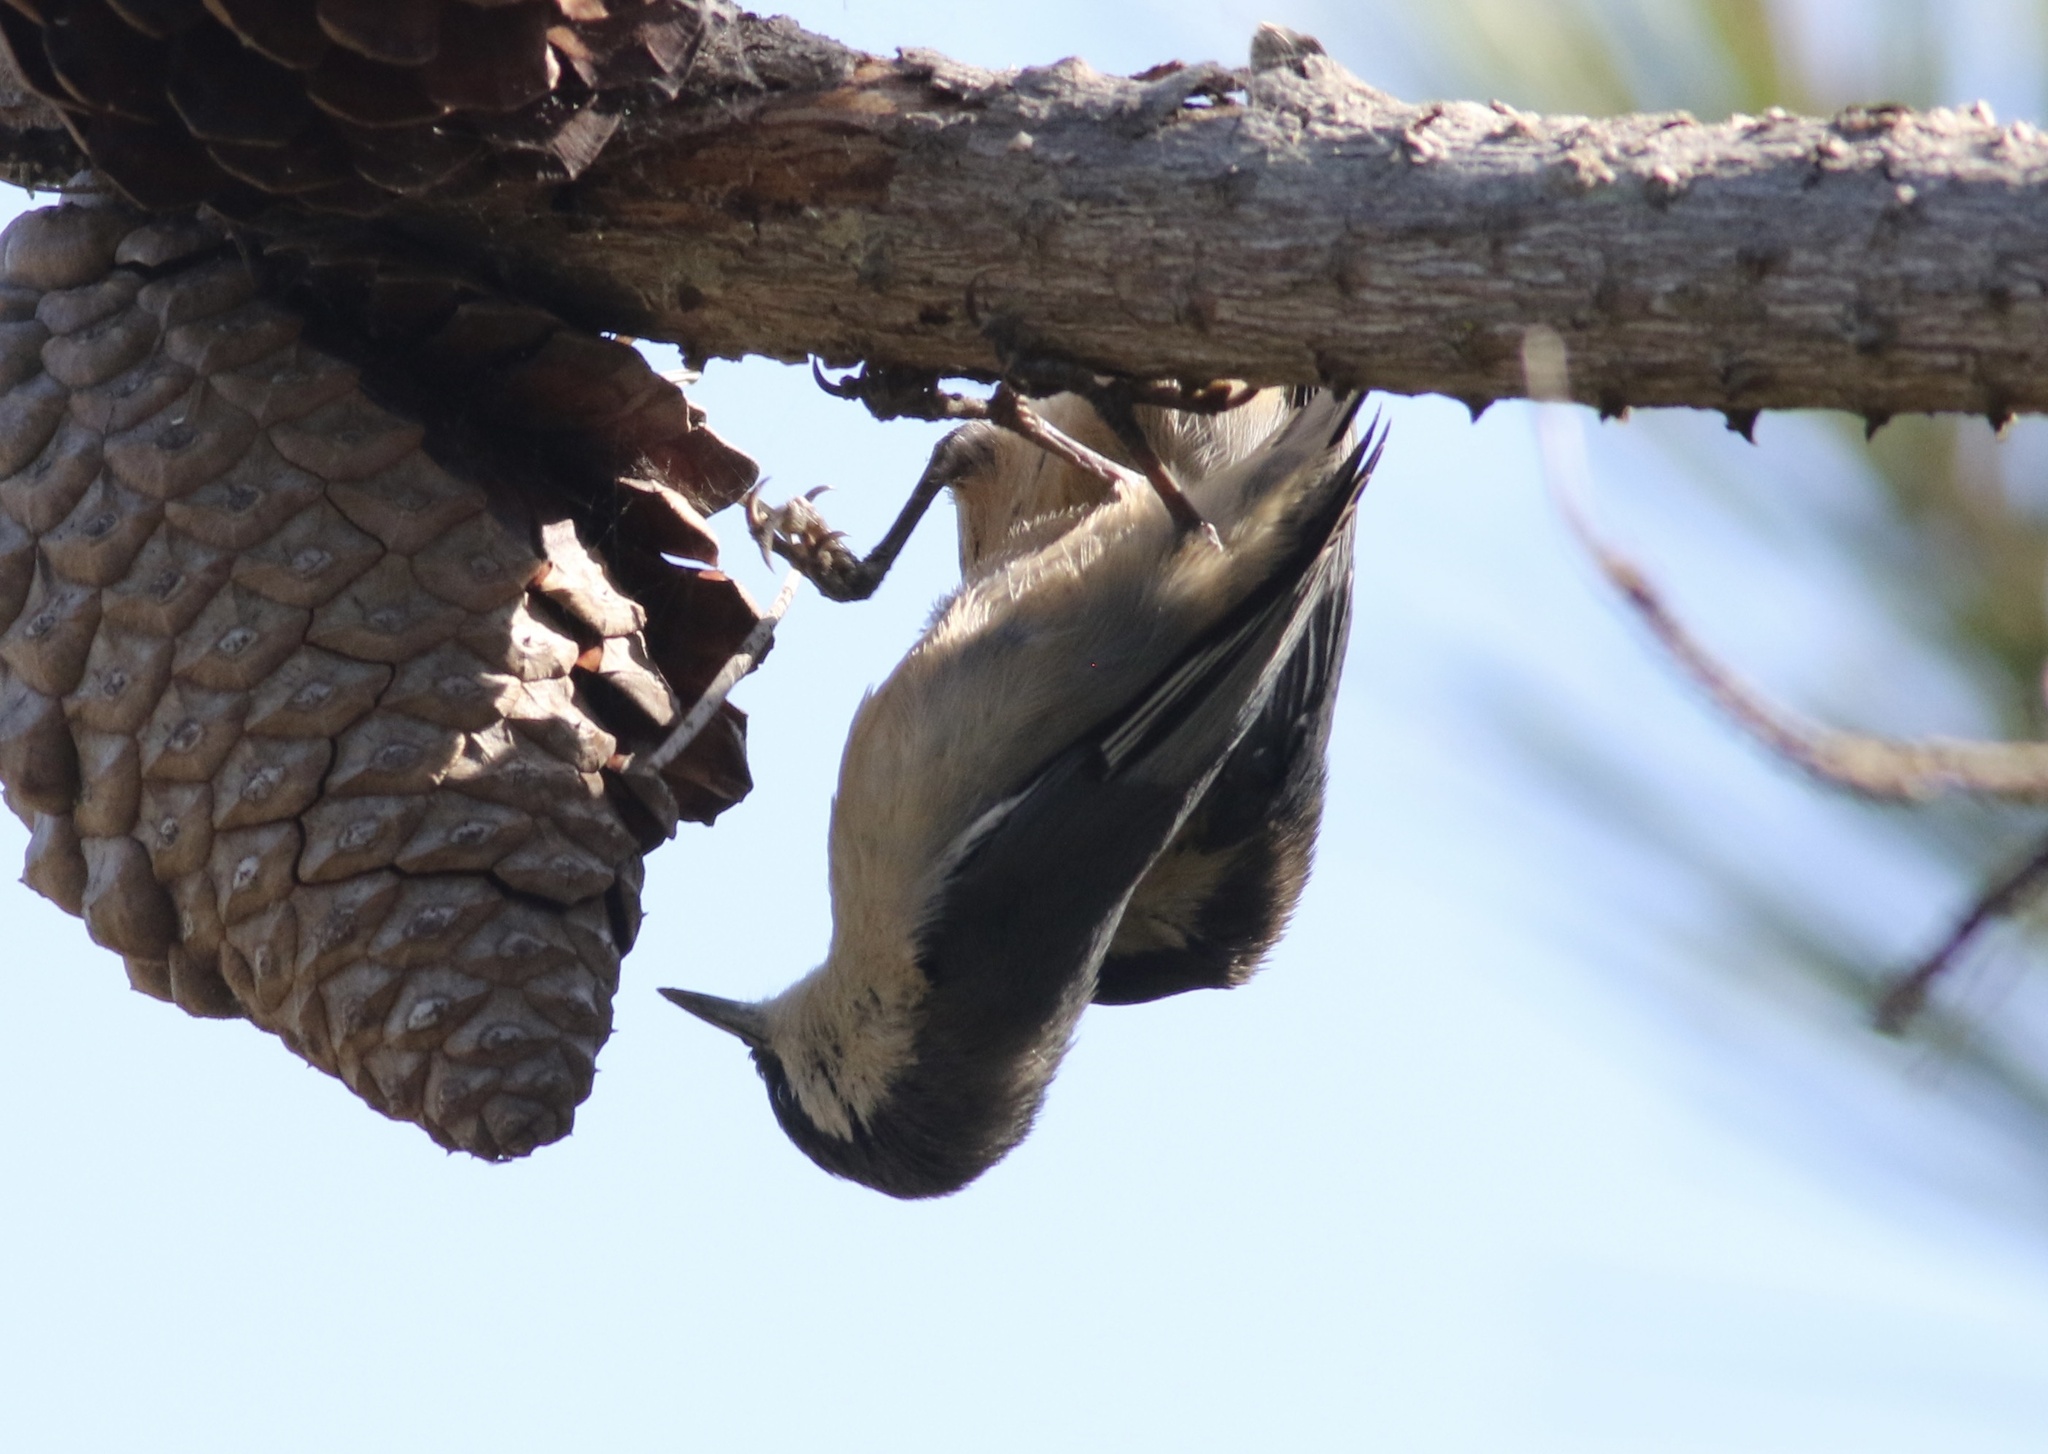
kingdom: Animalia
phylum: Chordata
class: Aves
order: Passeriformes
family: Sittidae
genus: Sitta
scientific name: Sitta pygmaea
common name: Pygmy nuthatch
